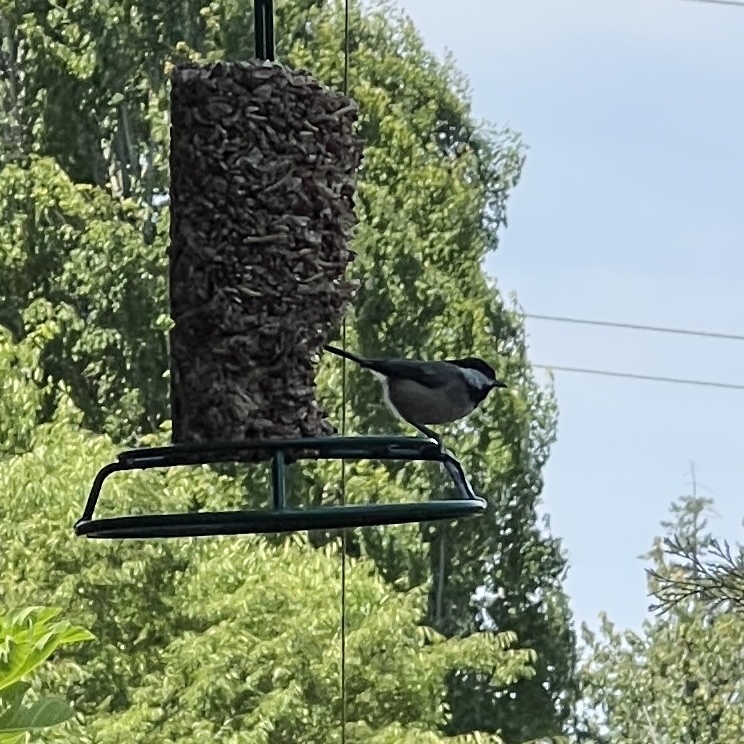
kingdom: Animalia
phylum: Chordata
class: Aves
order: Passeriformes
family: Paridae
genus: Poecile
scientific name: Poecile atricapillus
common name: Black-capped chickadee
